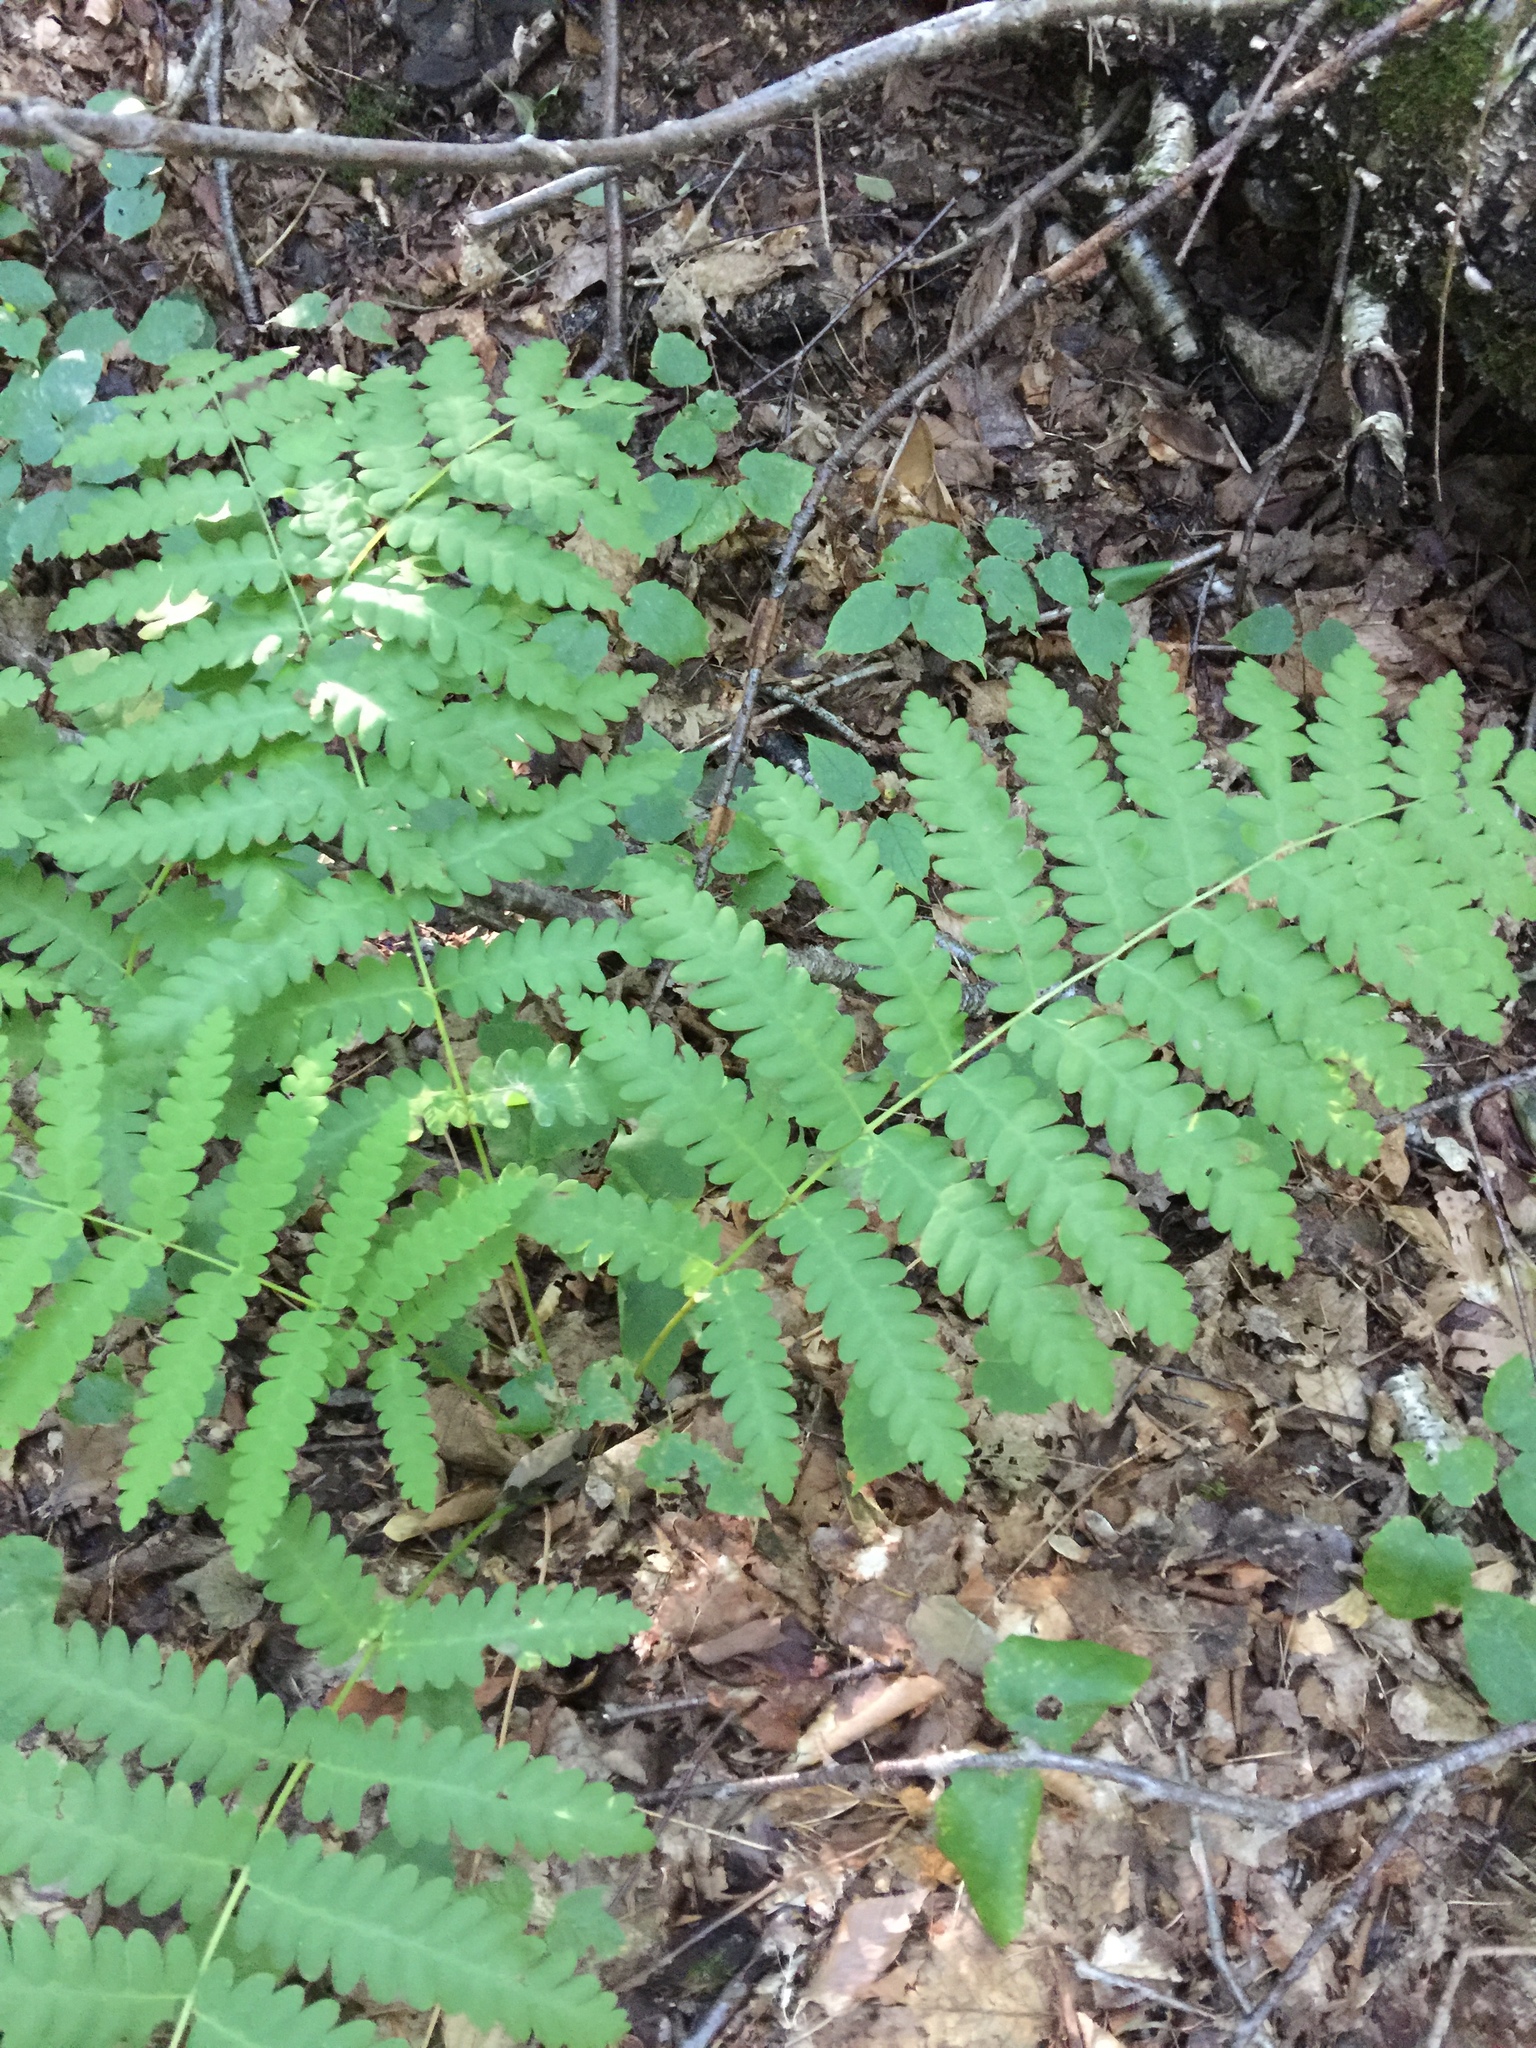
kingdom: Plantae
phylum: Tracheophyta
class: Polypodiopsida
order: Osmundales
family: Osmundaceae
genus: Claytosmunda
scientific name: Claytosmunda claytoniana
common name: Clayton's fern
